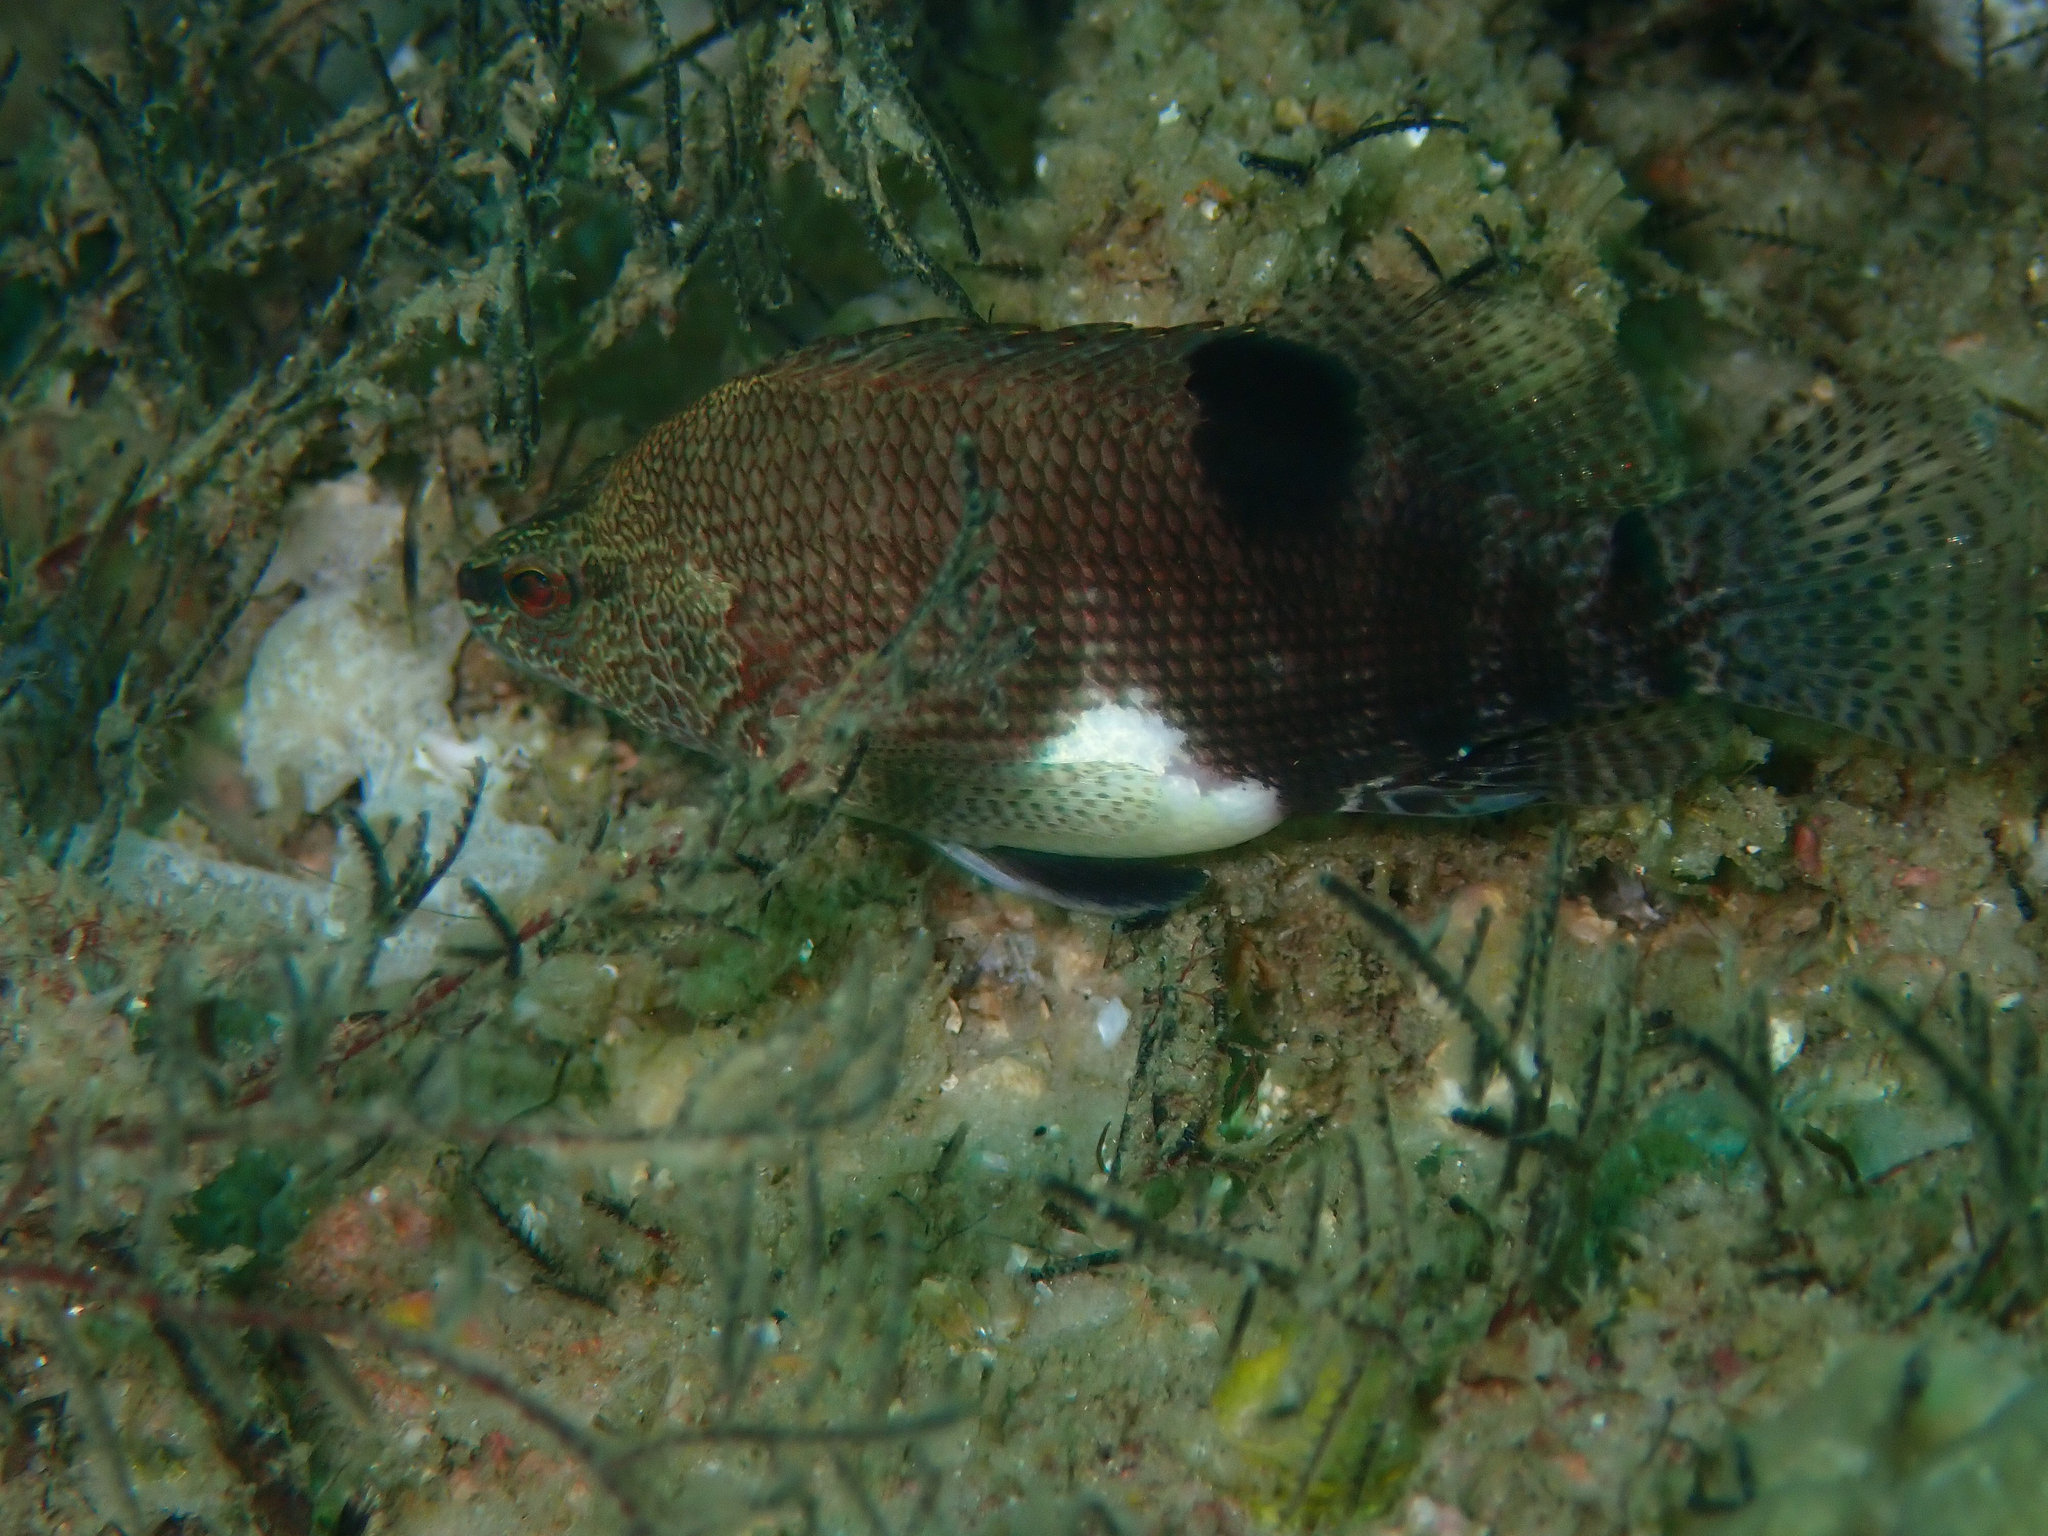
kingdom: Animalia
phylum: Chordata
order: Perciformes
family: Serranidae
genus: Serranus
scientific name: Serranus subligarius
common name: Belted sandfish
